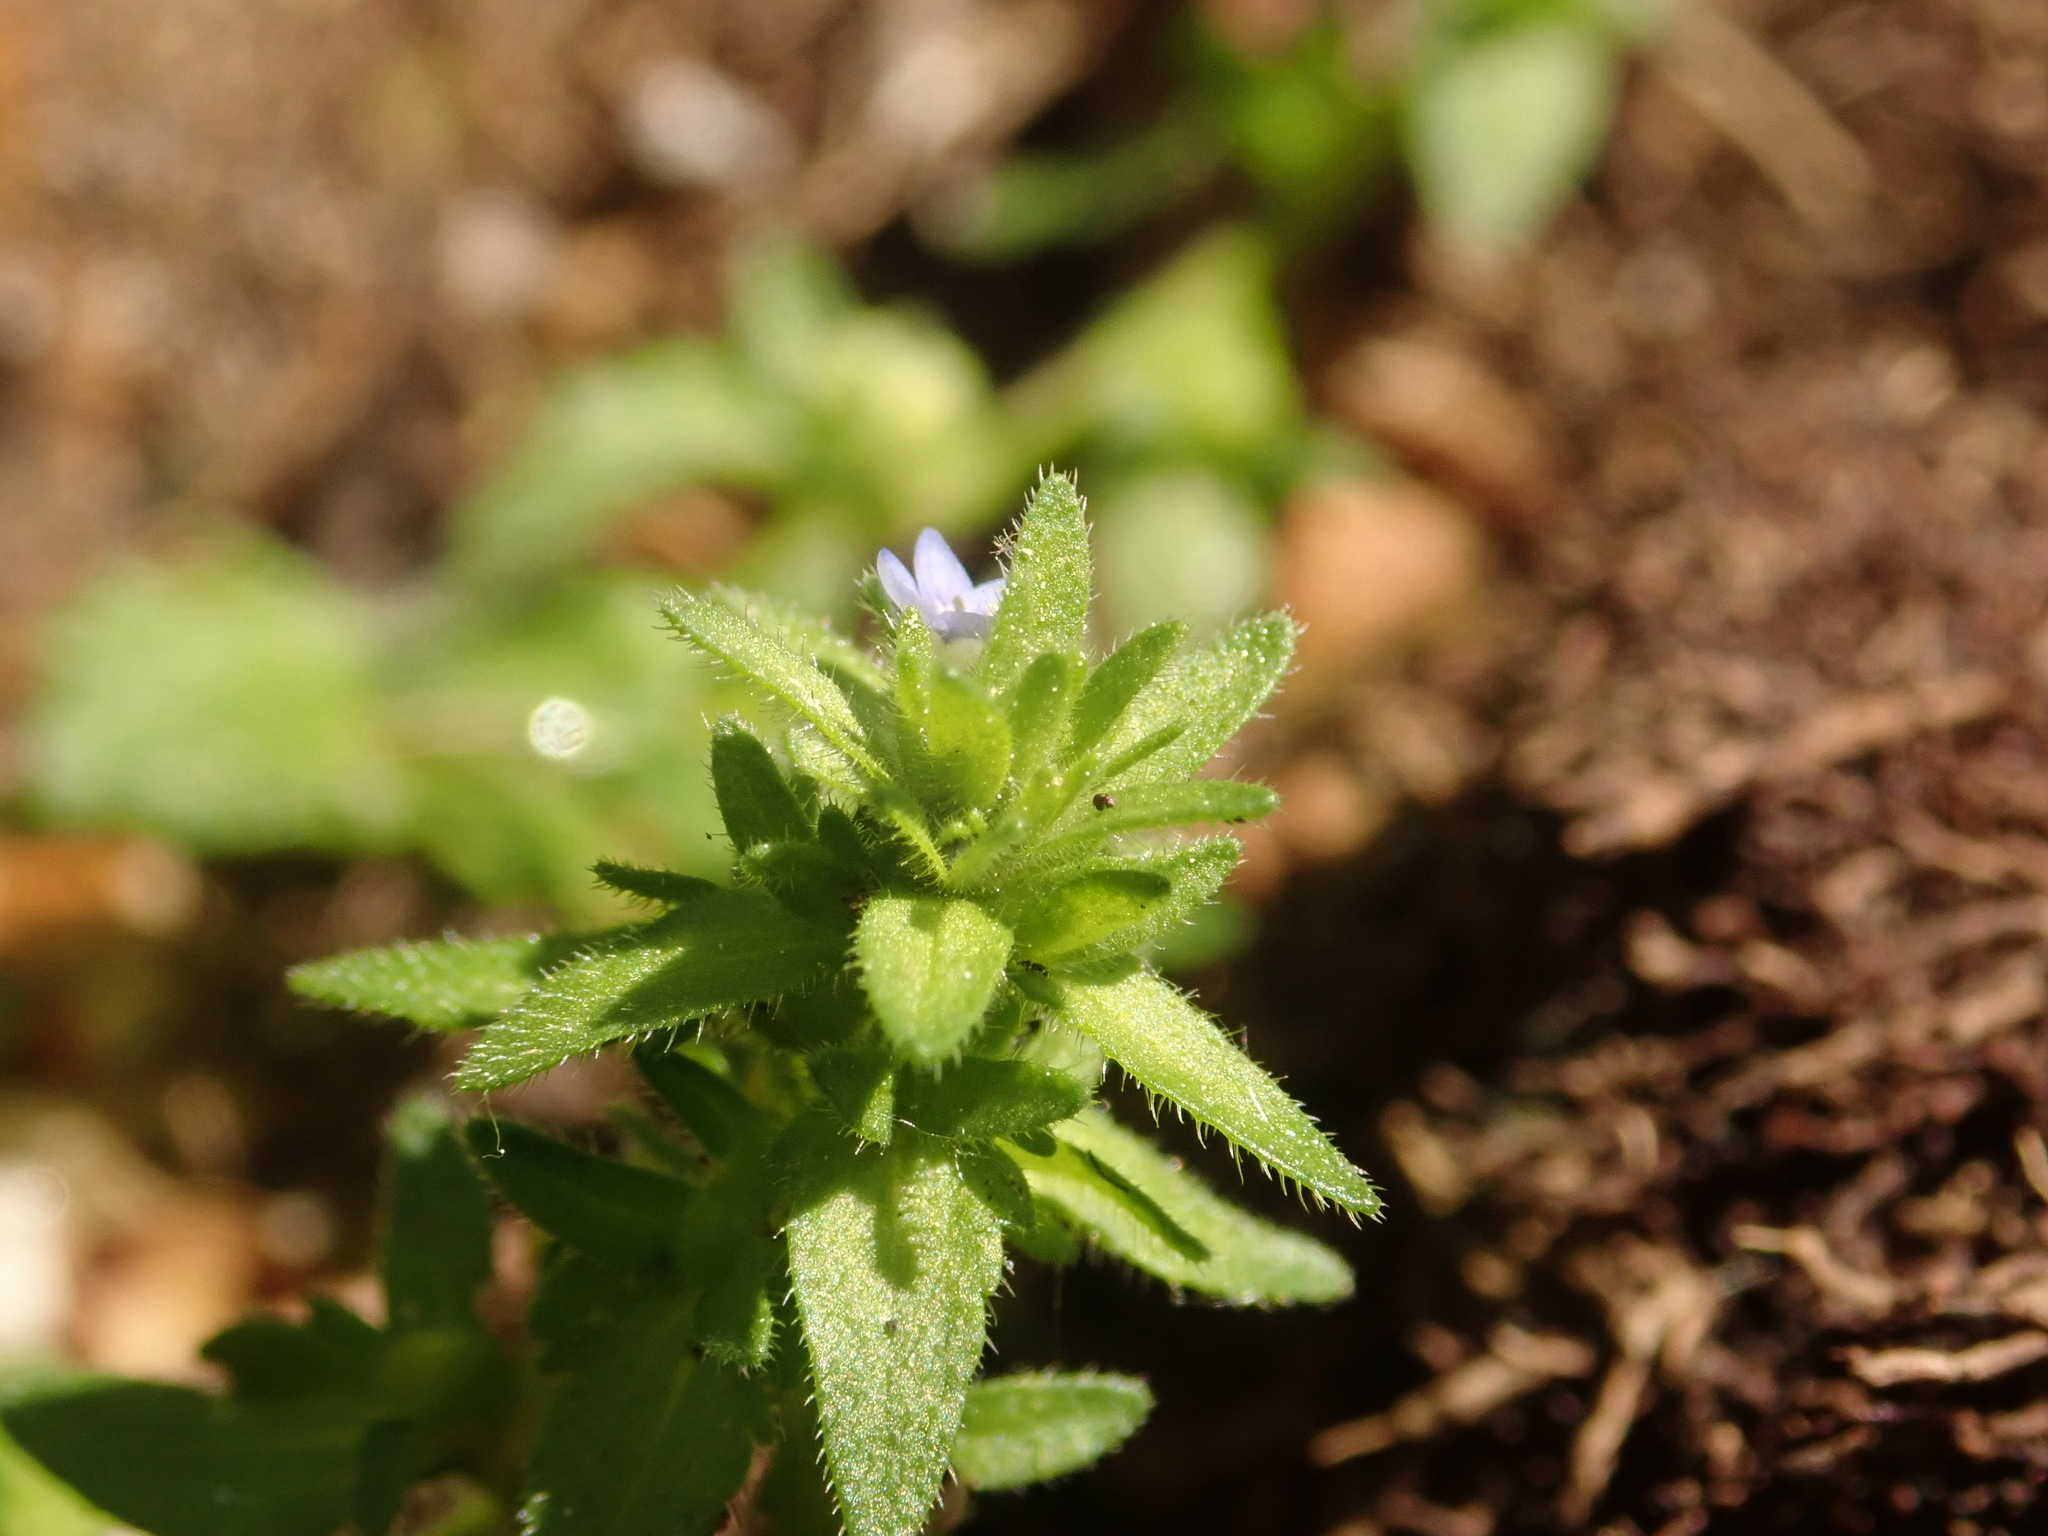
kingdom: Plantae
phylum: Tracheophyta
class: Magnoliopsida
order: Lamiales
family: Plantaginaceae
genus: Veronica
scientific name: Veronica arvensis
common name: Corn speedwell
